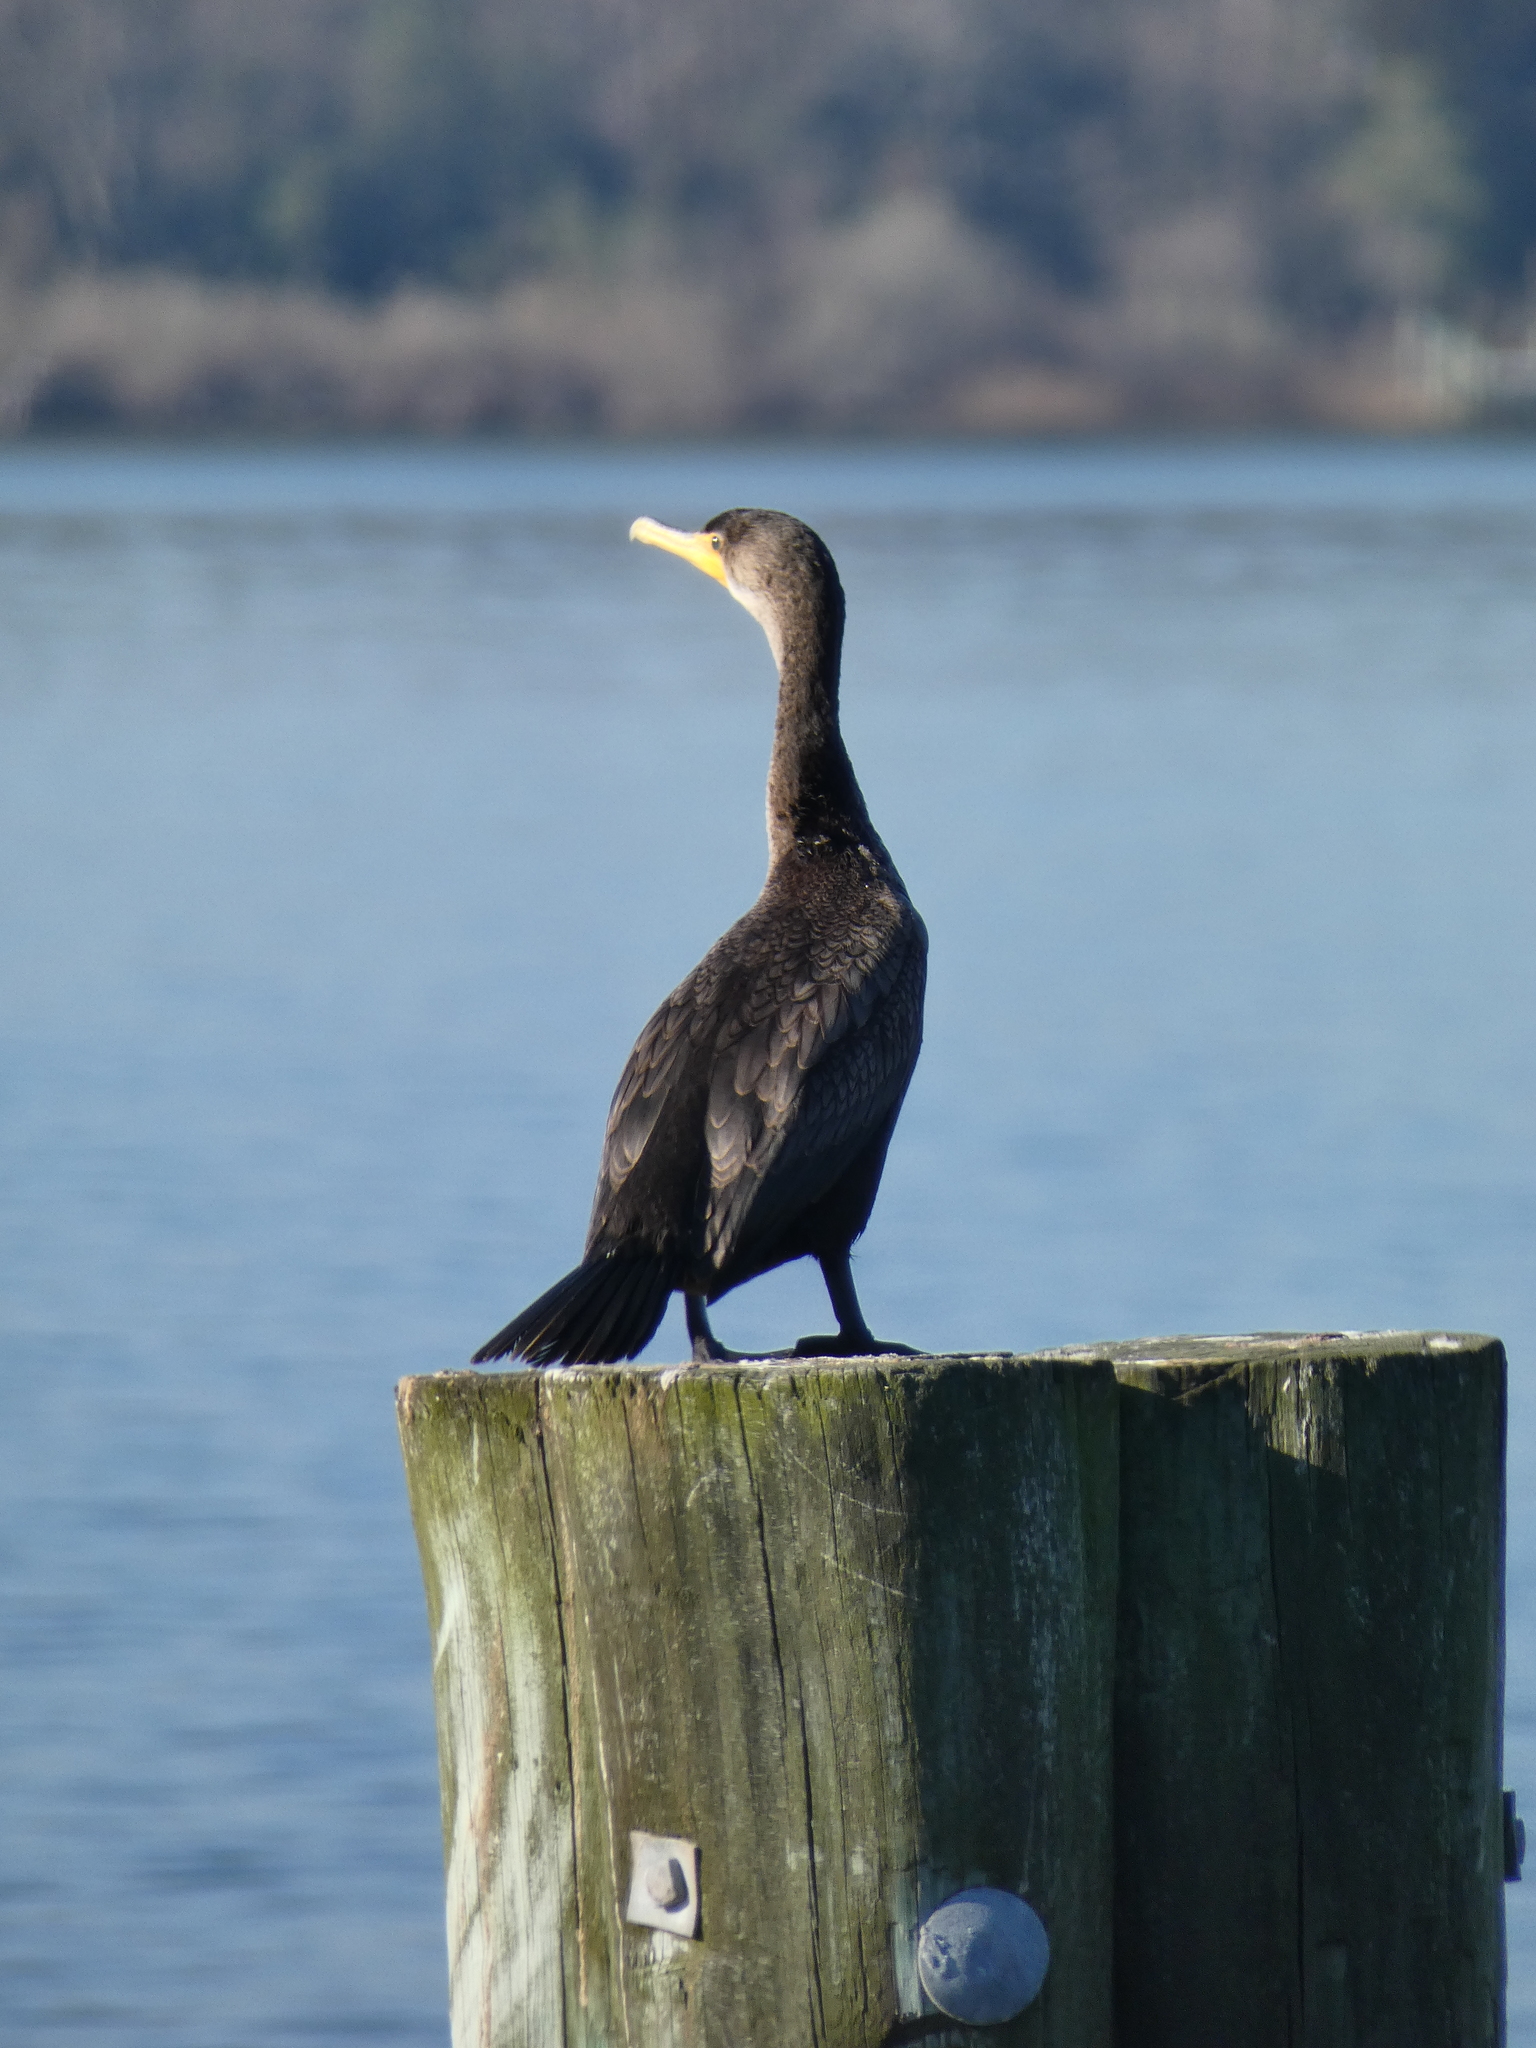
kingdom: Animalia
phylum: Chordata
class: Aves
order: Suliformes
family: Phalacrocoracidae
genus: Phalacrocorax
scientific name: Phalacrocorax auritus
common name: Double-crested cormorant
